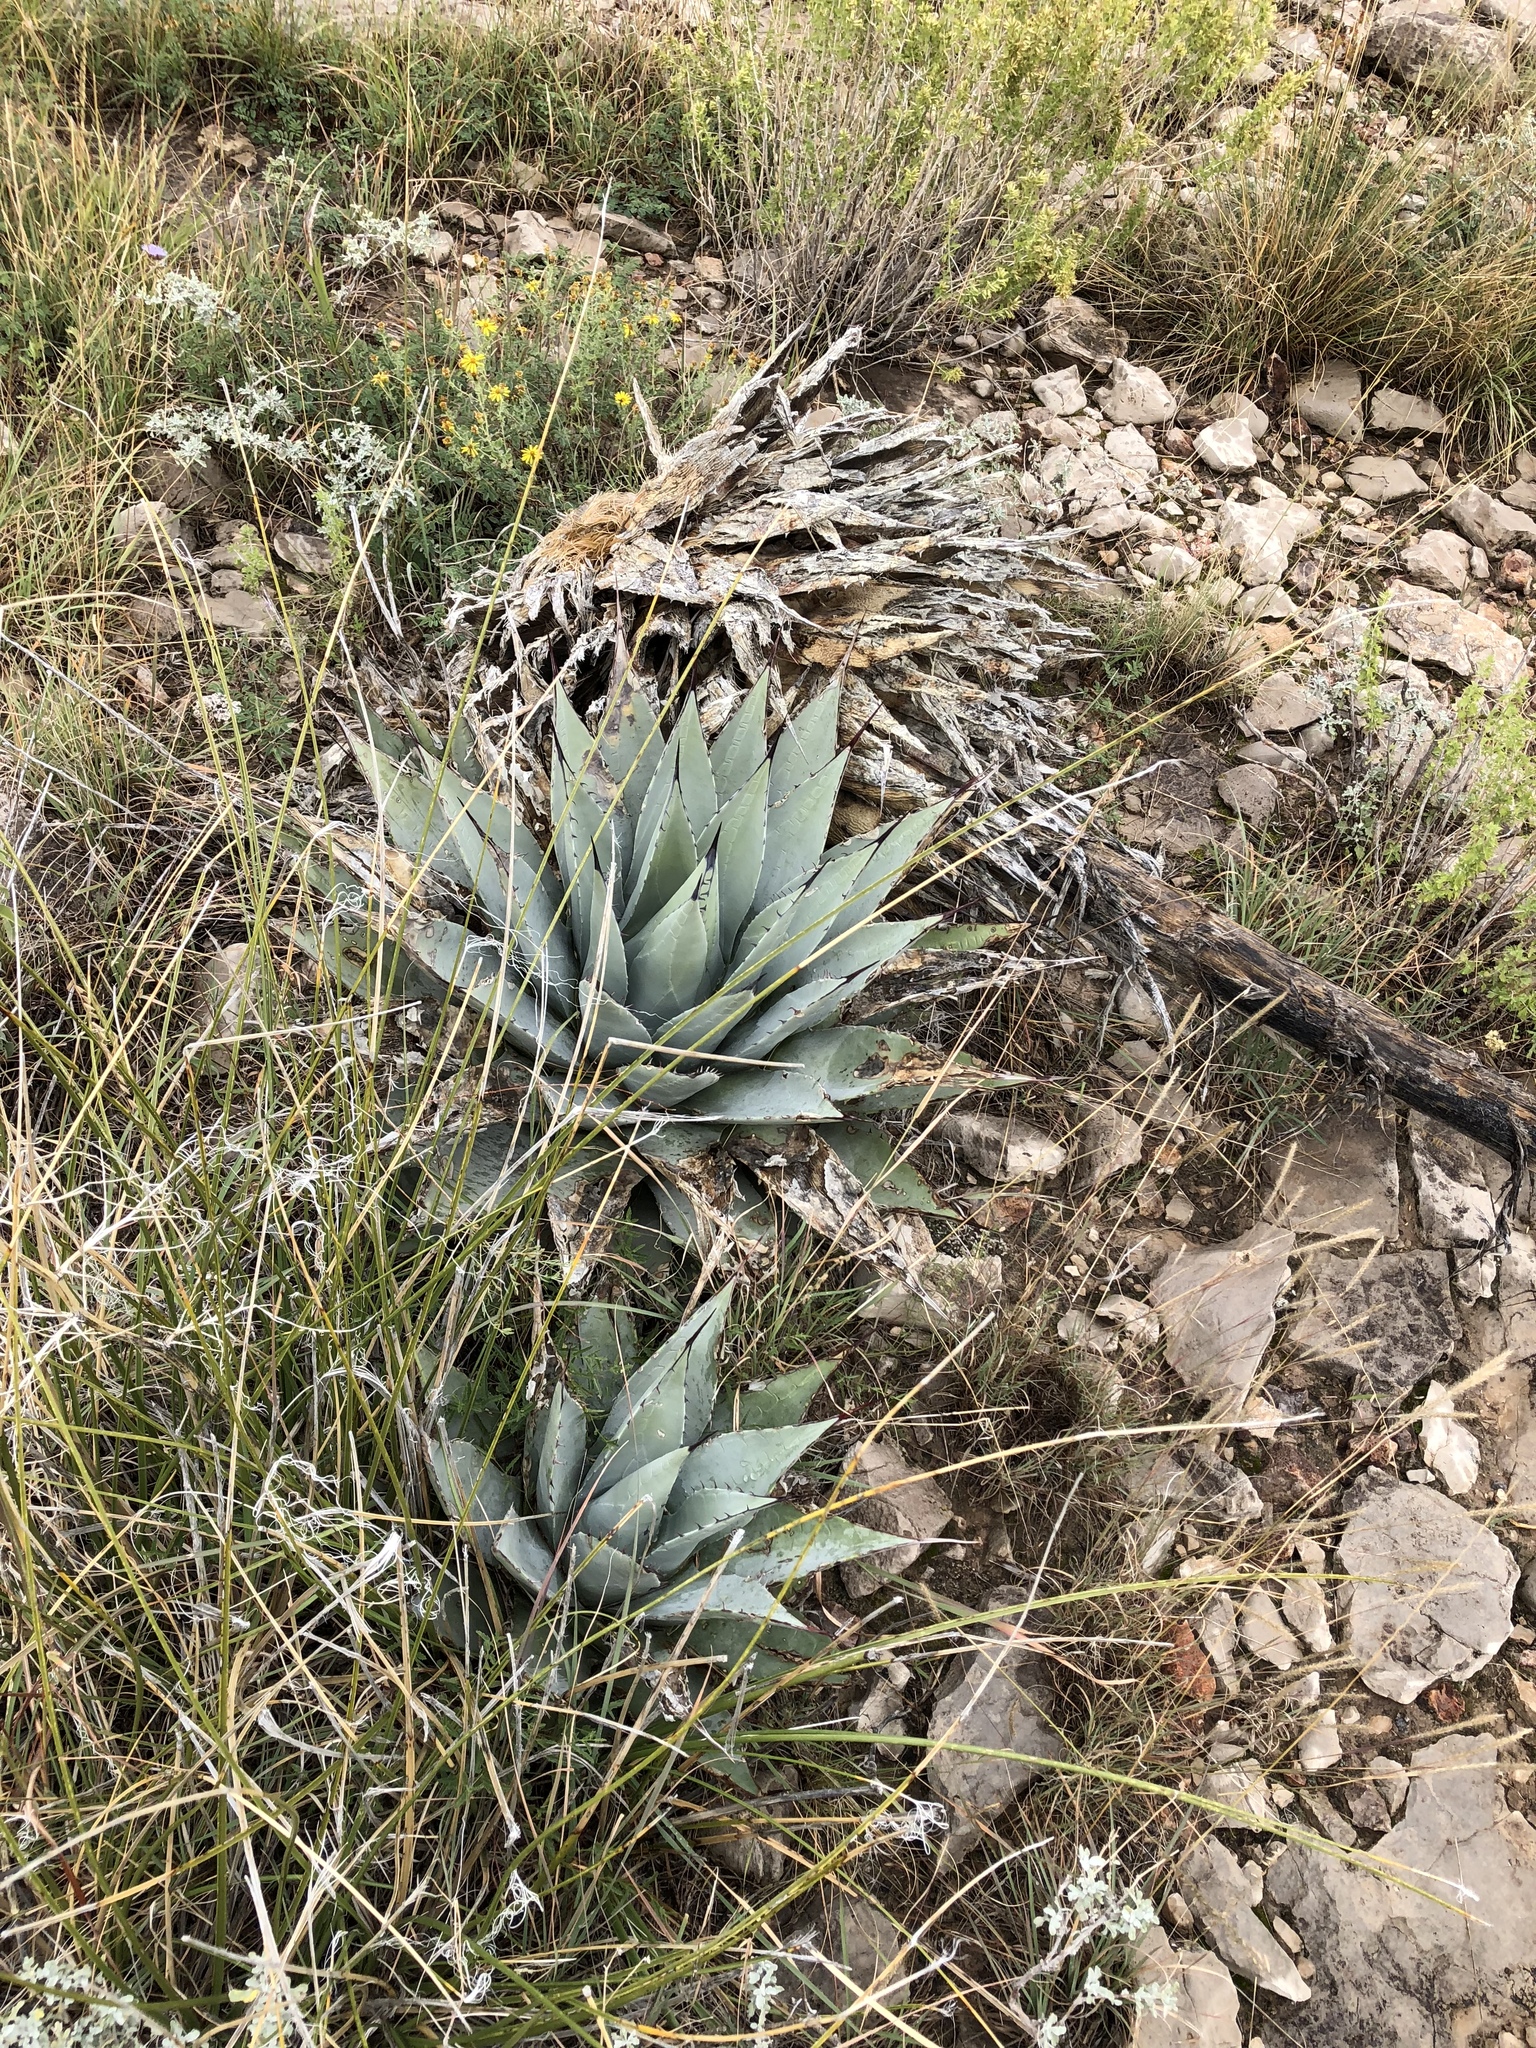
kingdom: Plantae
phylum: Tracheophyta
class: Liliopsida
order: Asparagales
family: Asparagaceae
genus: Agave
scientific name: Agave parryi
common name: Parry's agave
